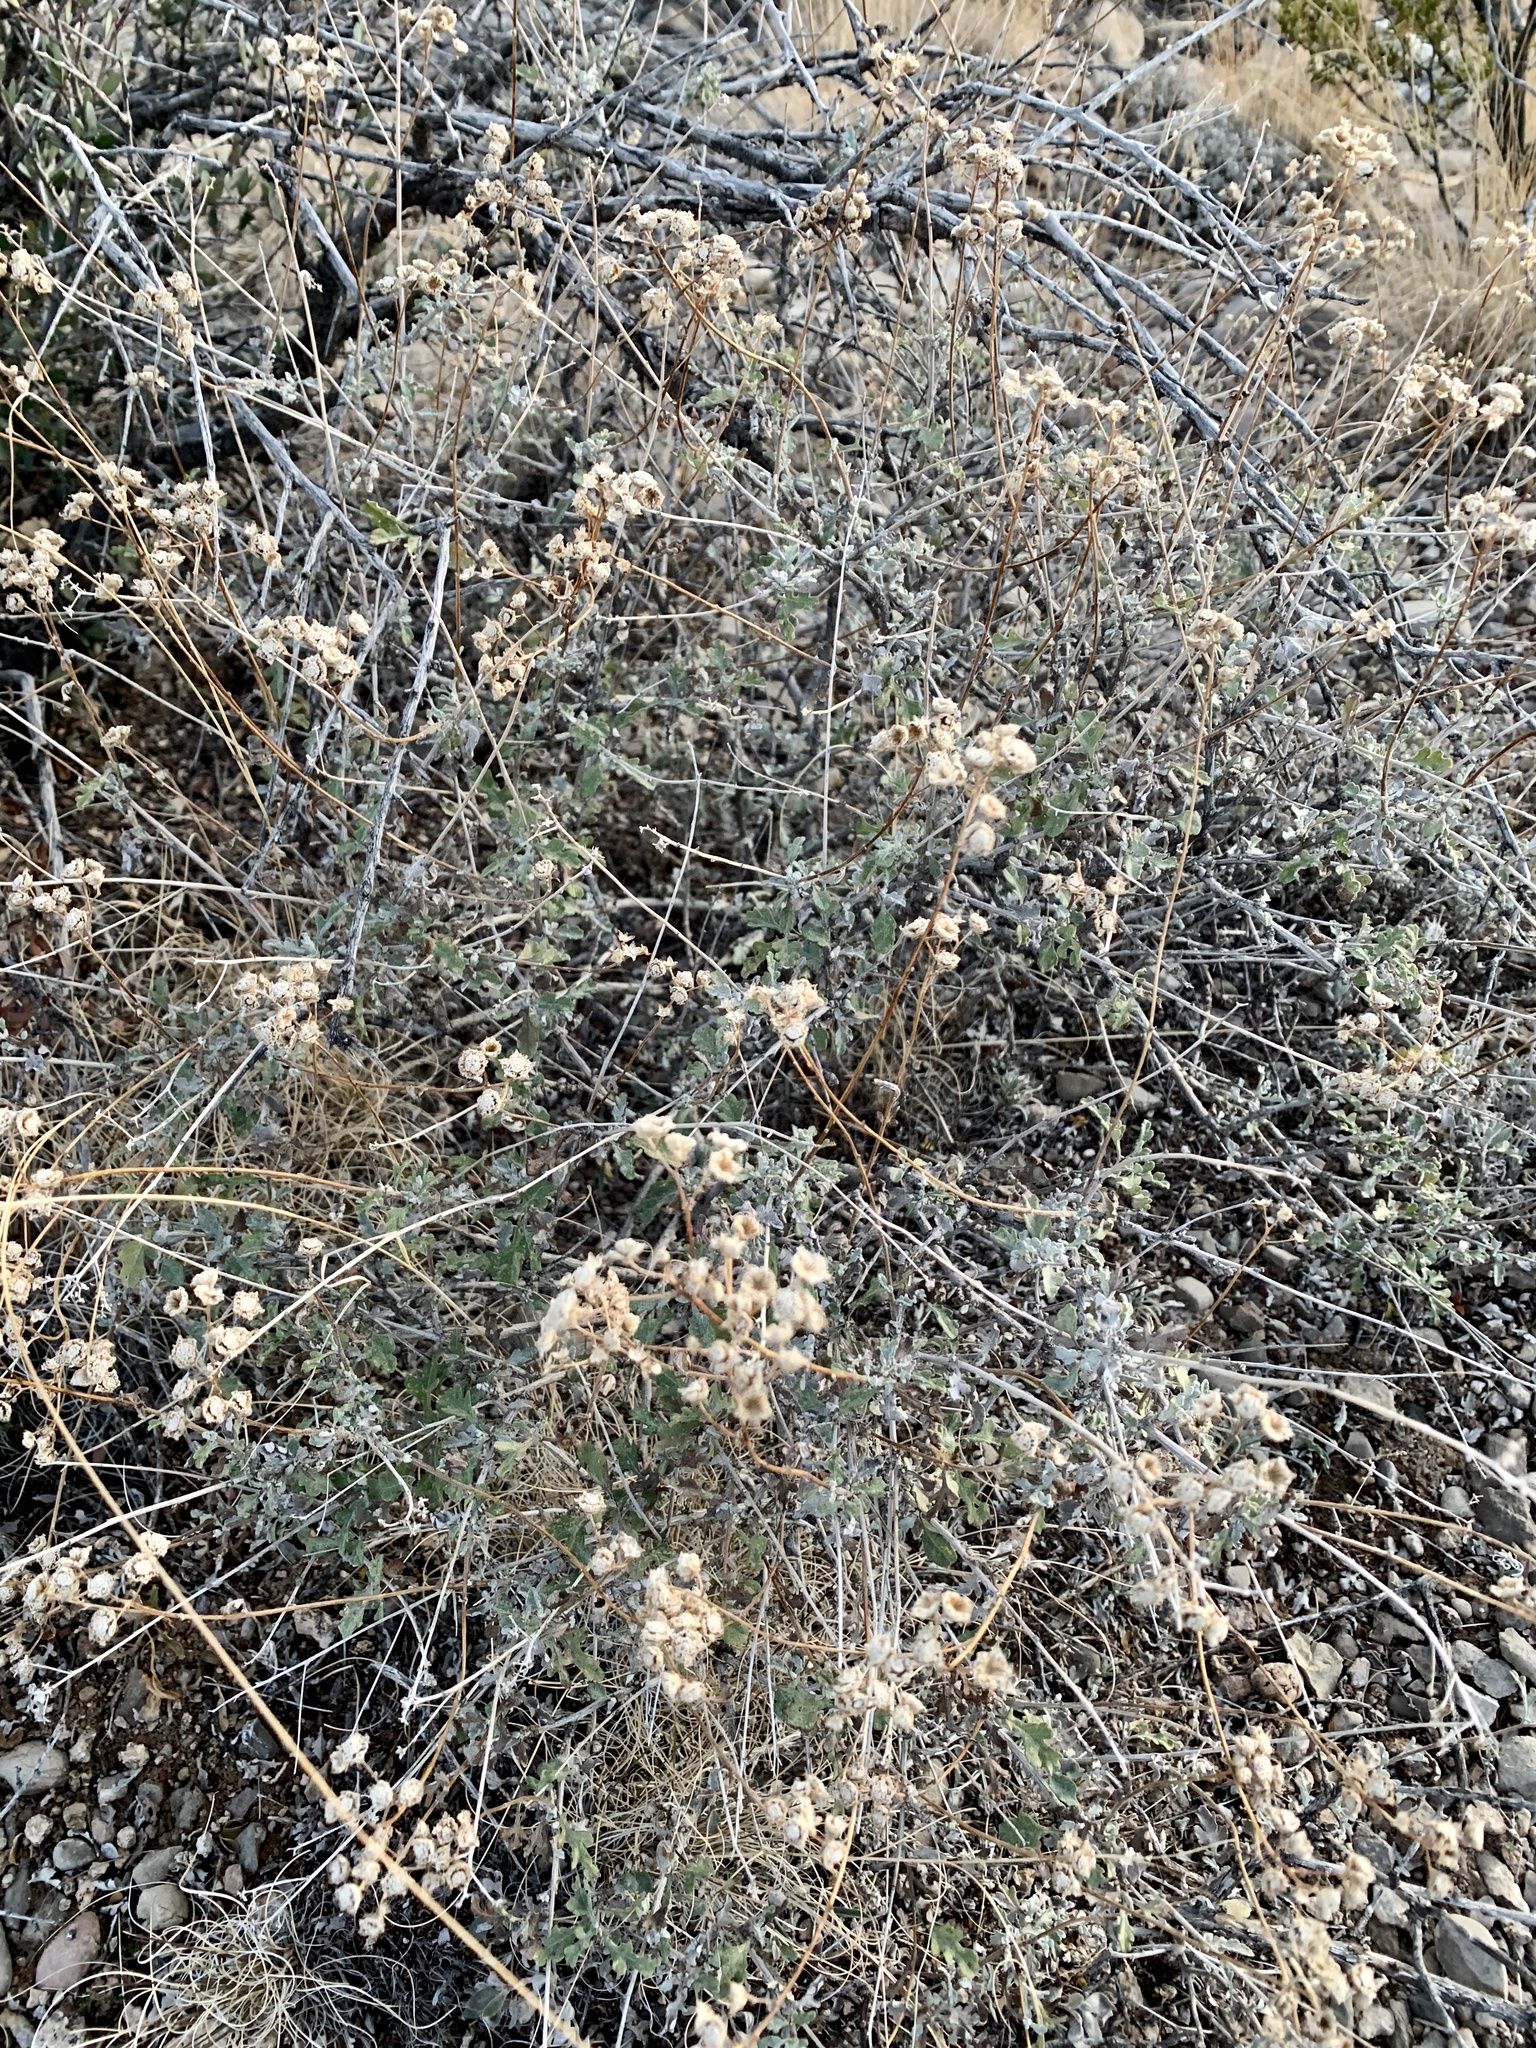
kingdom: Plantae
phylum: Tracheophyta
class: Magnoliopsida
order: Asterales
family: Asteraceae
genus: Parthenium
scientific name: Parthenium incanum
